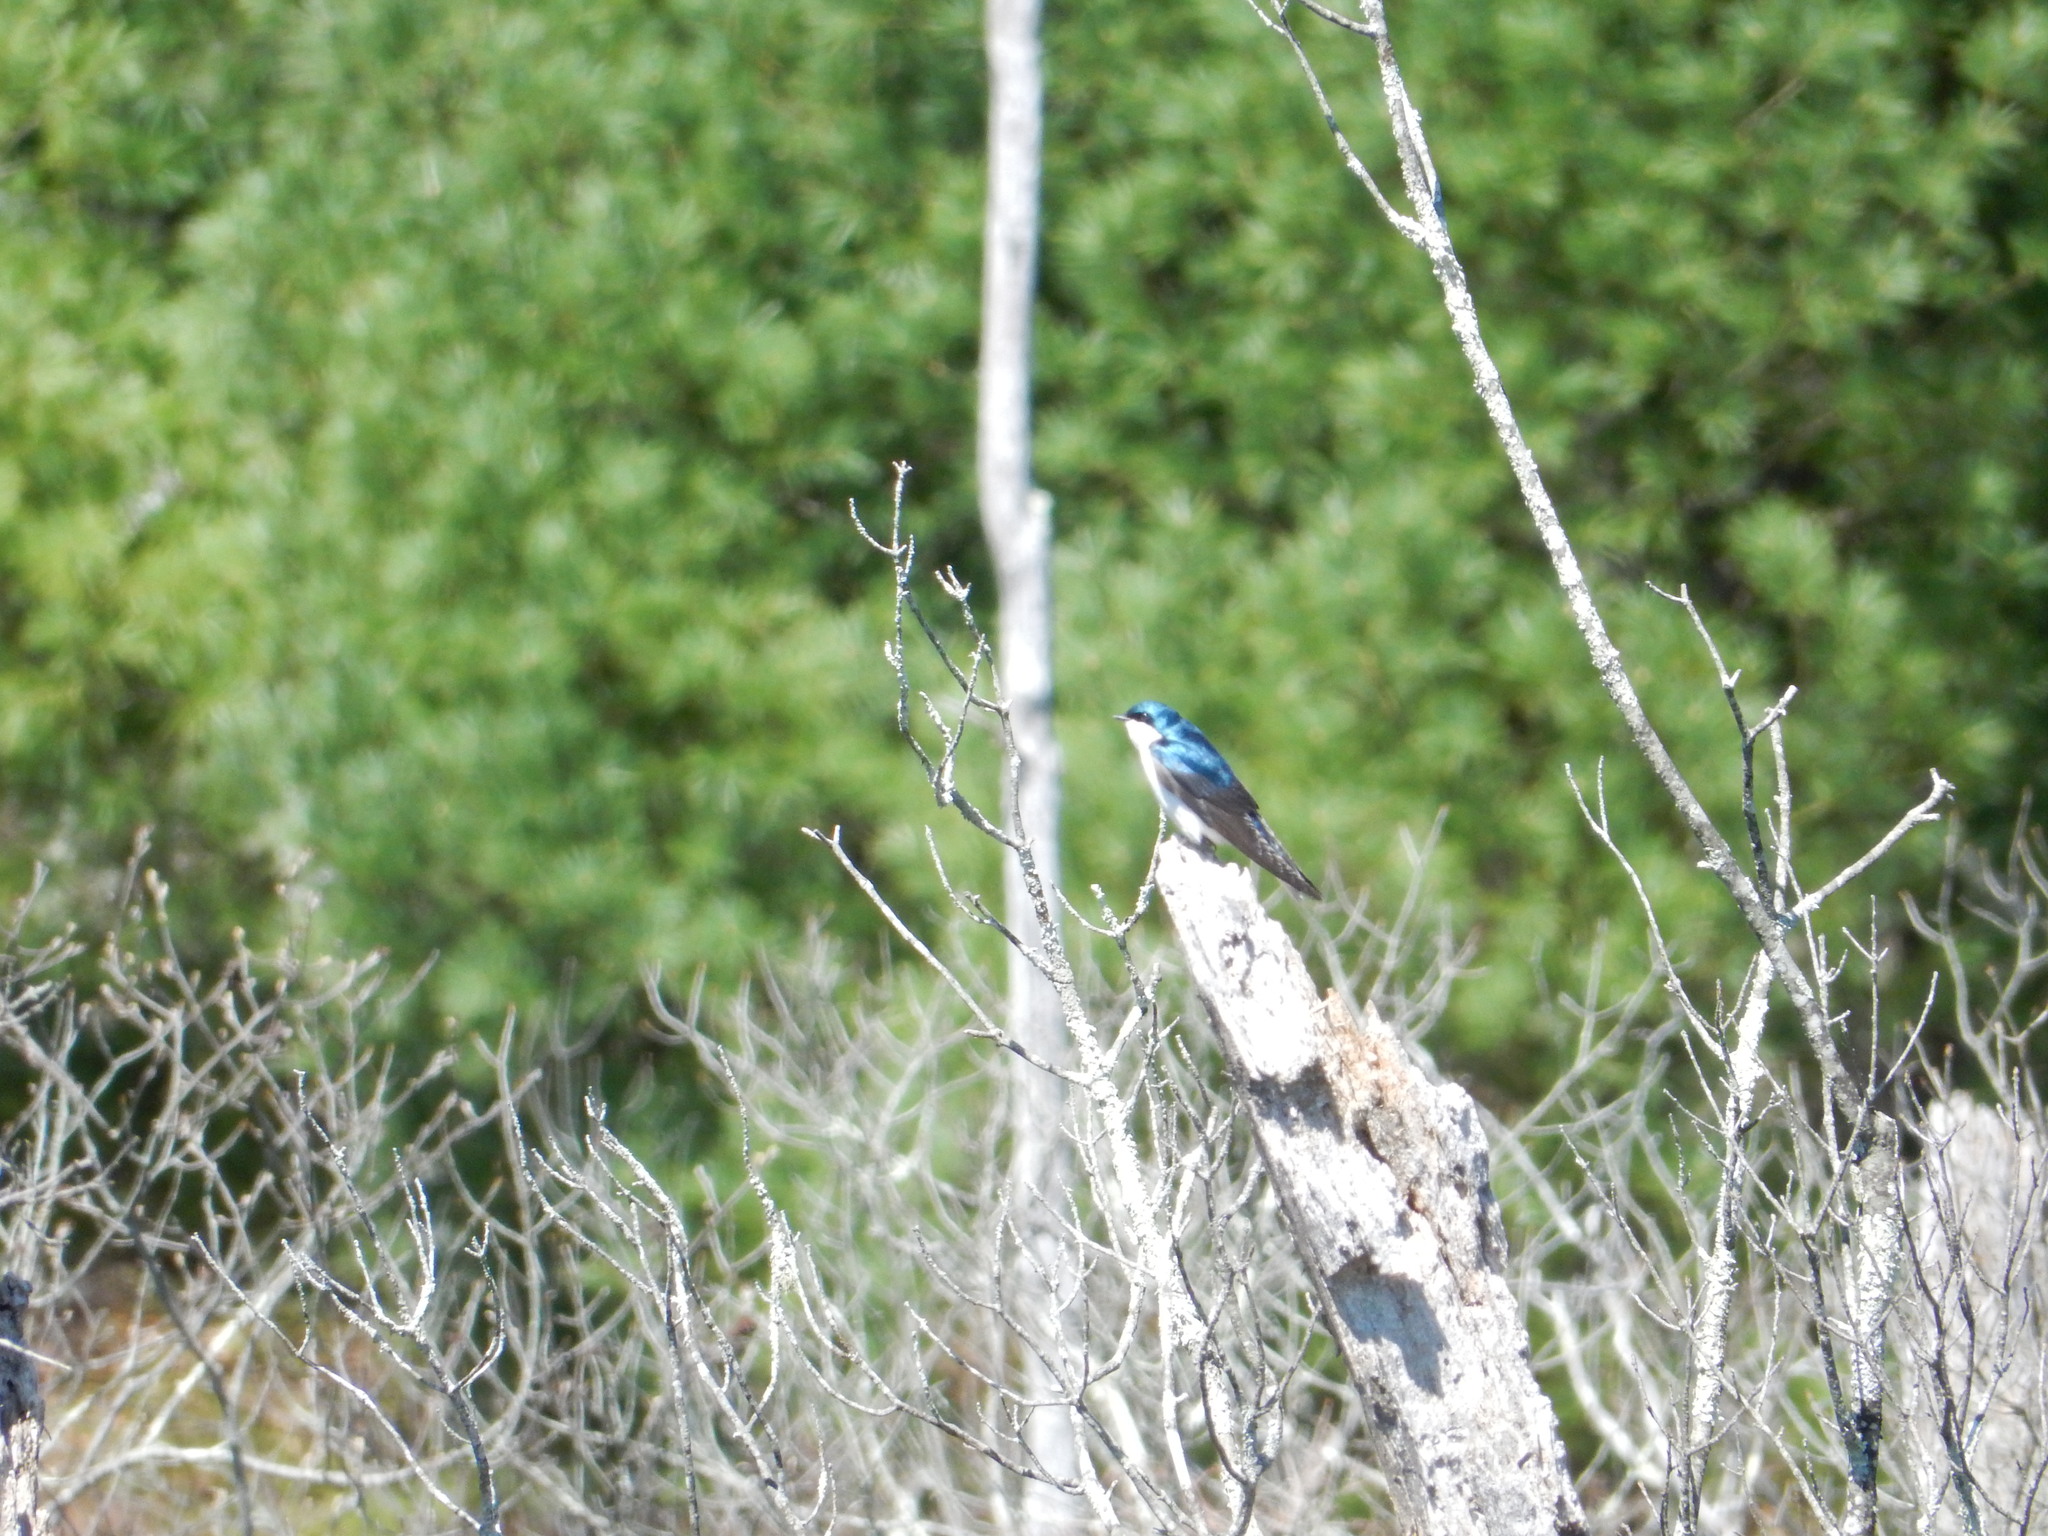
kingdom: Animalia
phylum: Chordata
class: Aves
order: Passeriformes
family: Hirundinidae
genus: Tachycineta
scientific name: Tachycineta bicolor
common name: Tree swallow
